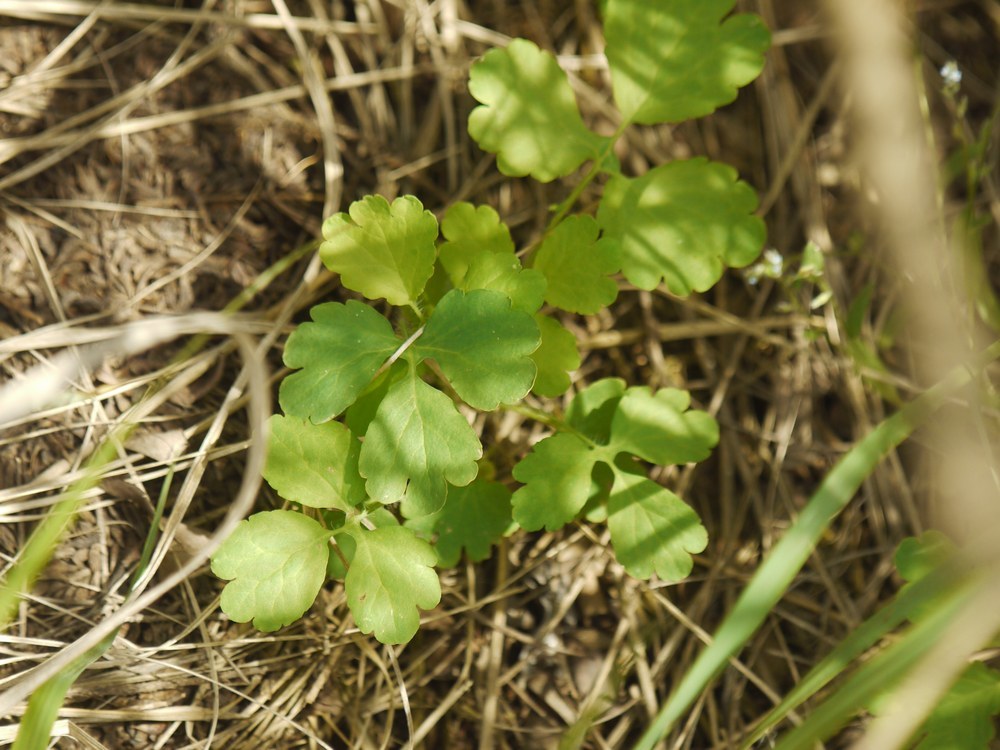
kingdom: Plantae
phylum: Tracheophyta
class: Magnoliopsida
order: Ranunculales
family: Papaveraceae
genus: Chelidonium
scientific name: Chelidonium majus
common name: Greater celandine
